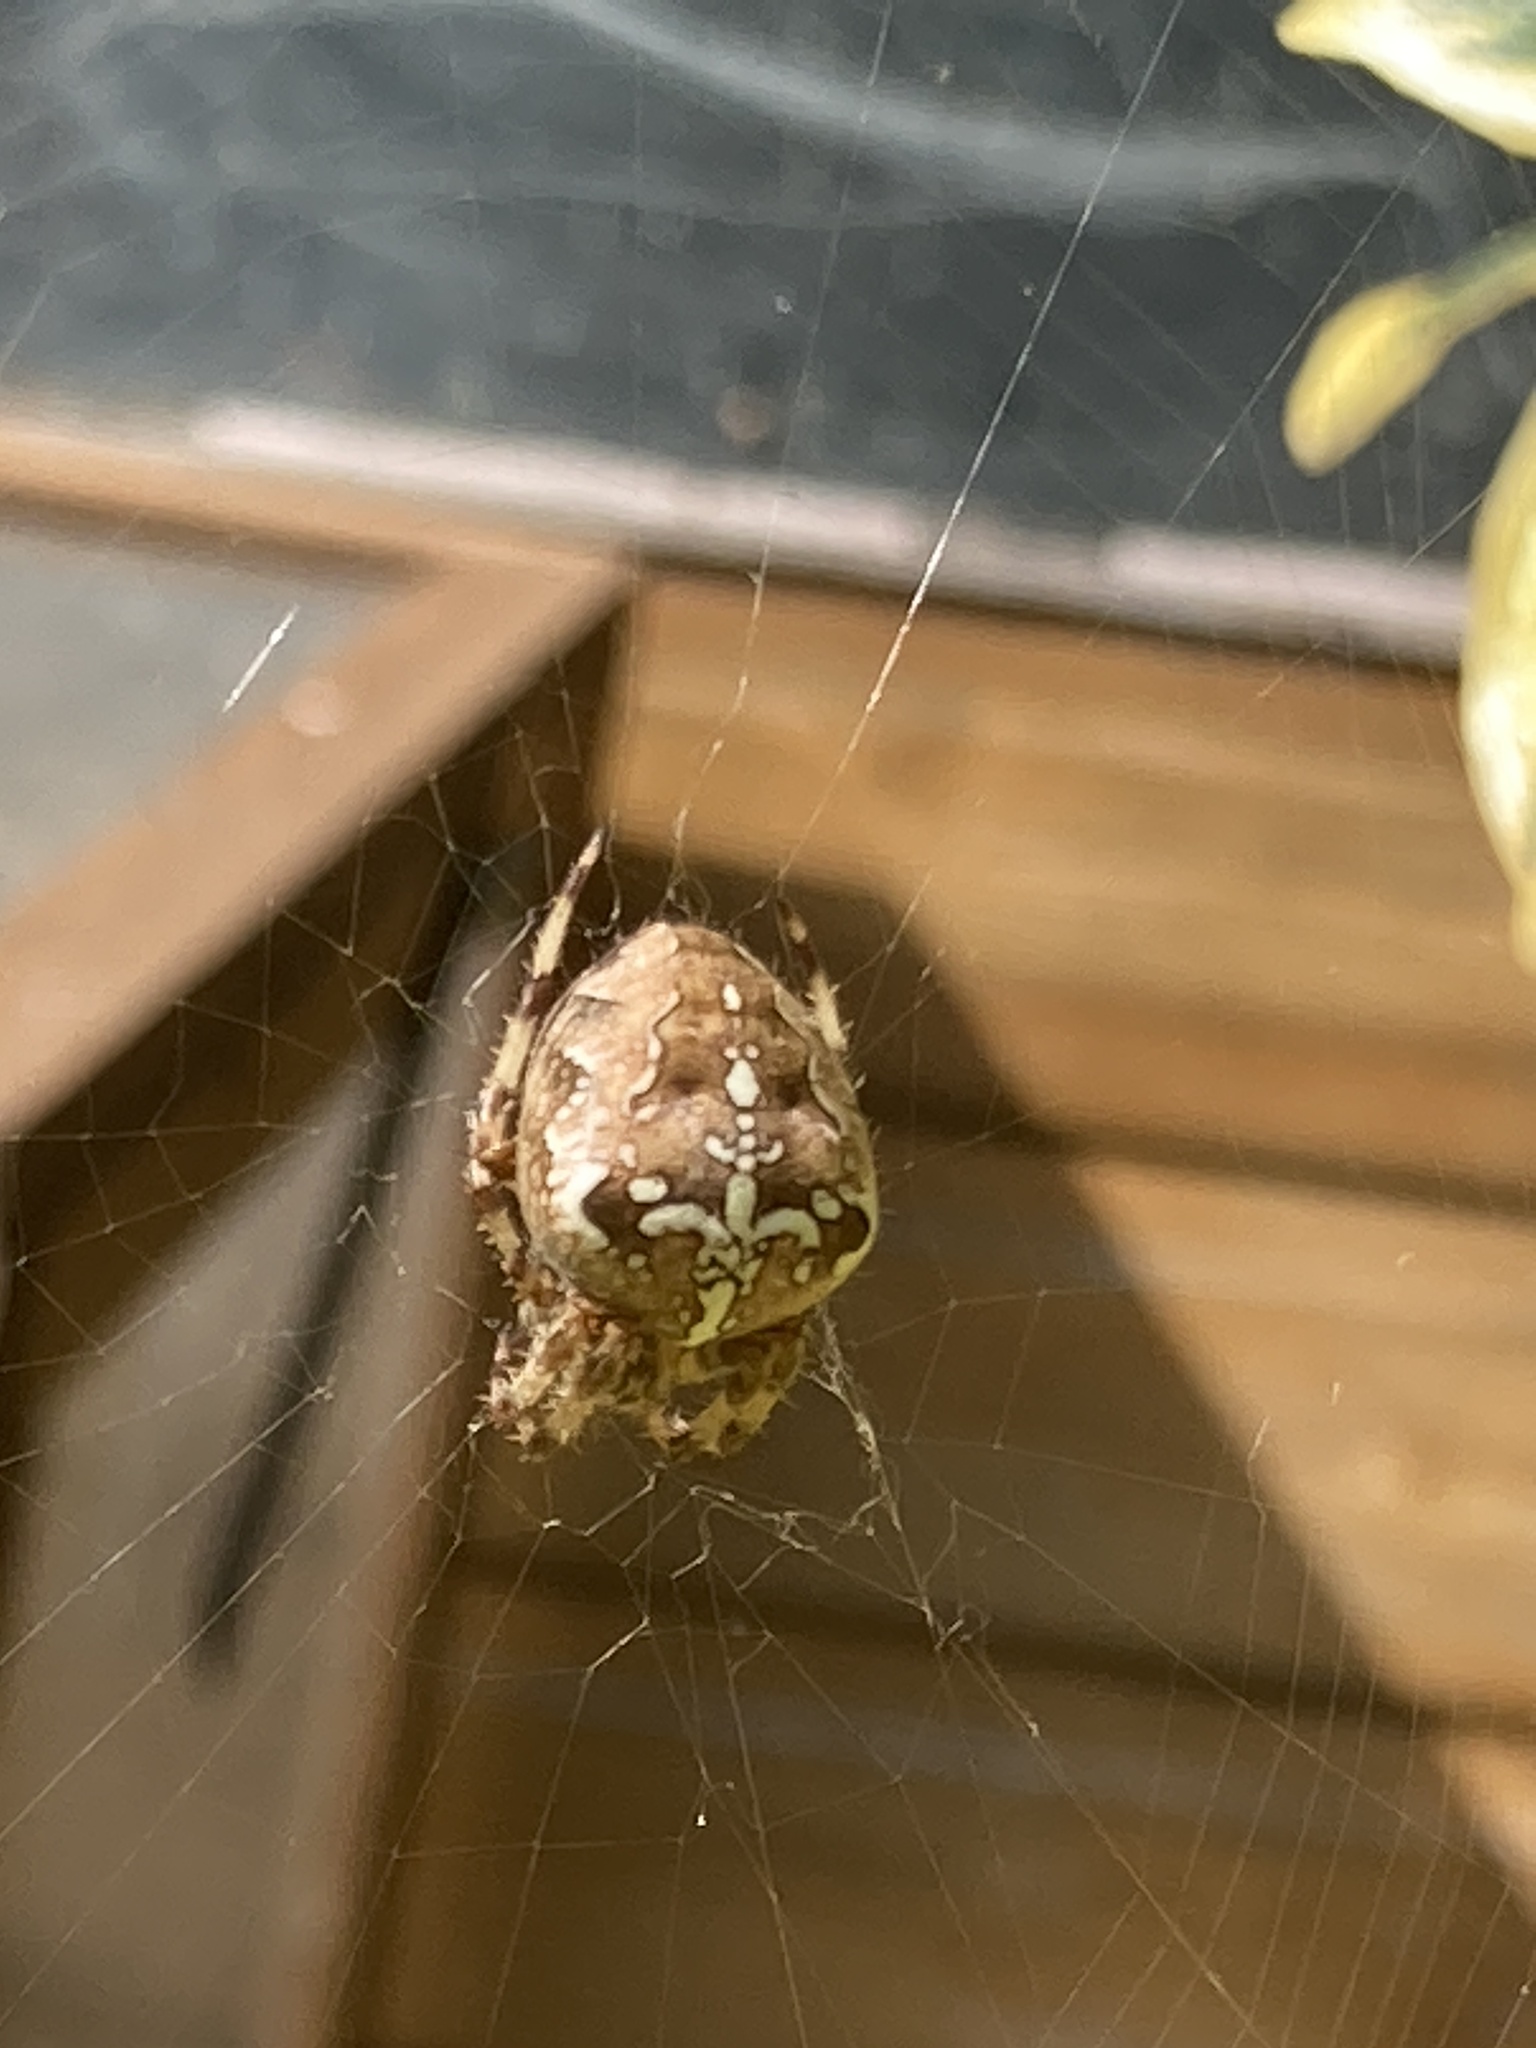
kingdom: Animalia
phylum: Arthropoda
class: Arachnida
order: Araneae
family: Araneidae
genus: Araneus
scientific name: Araneus diadematus
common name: Cross orbweaver
